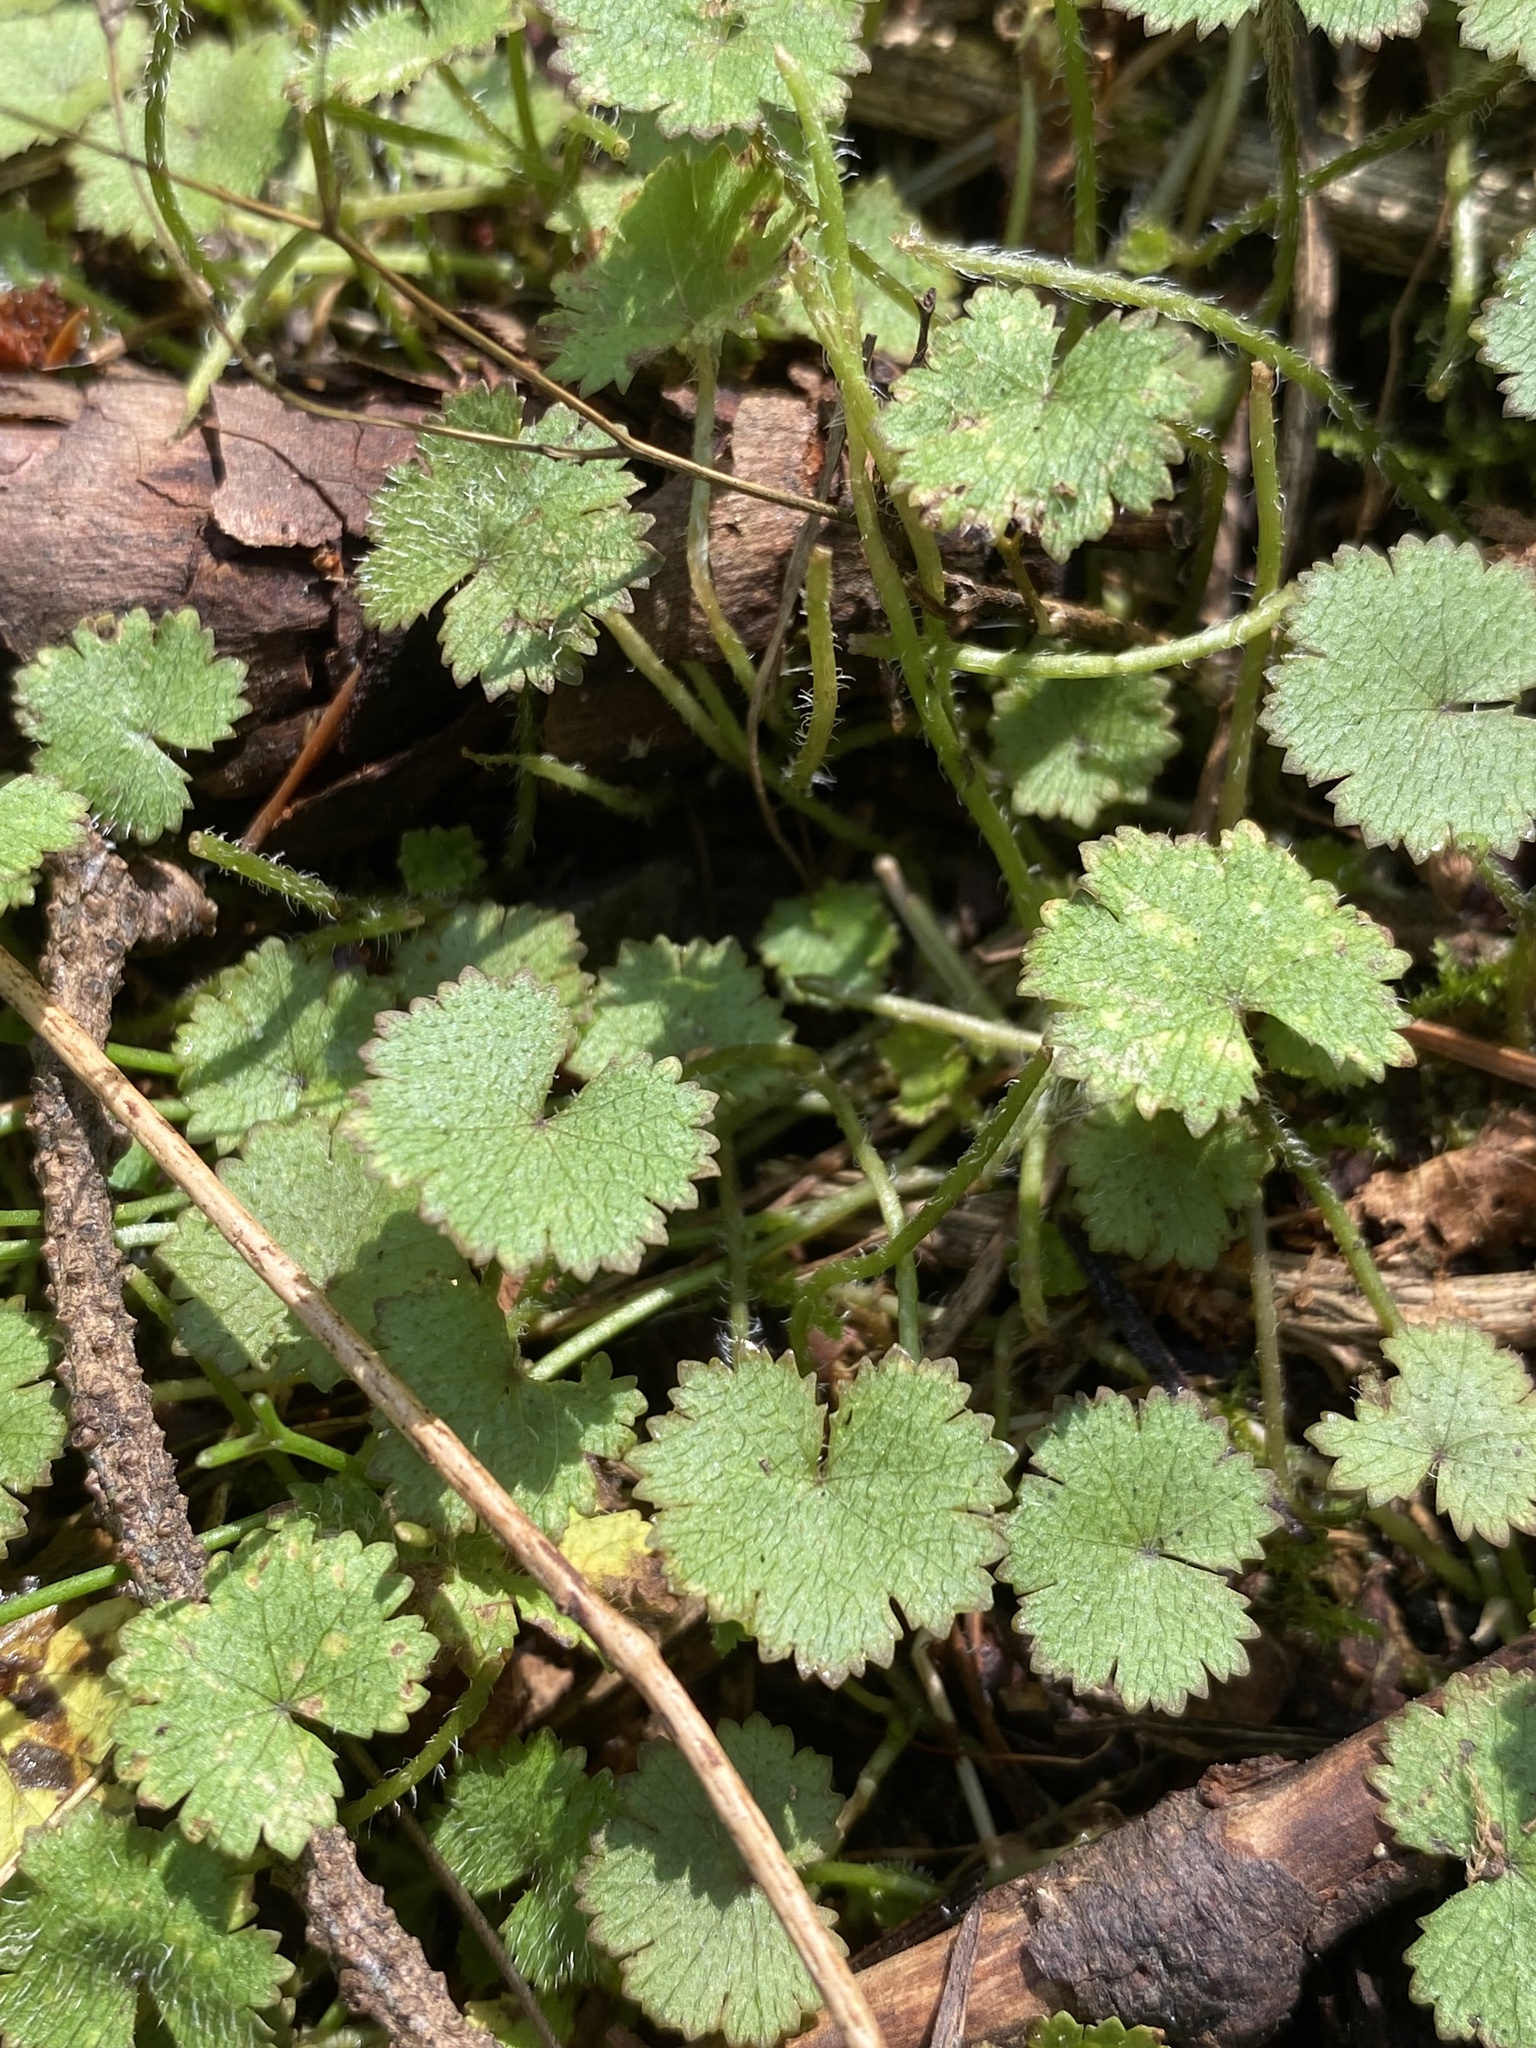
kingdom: Plantae
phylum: Tracheophyta
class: Magnoliopsida
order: Apiales
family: Araliaceae
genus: Hydrocotyle
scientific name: Hydrocotyle moschata
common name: Hairy pennywort
